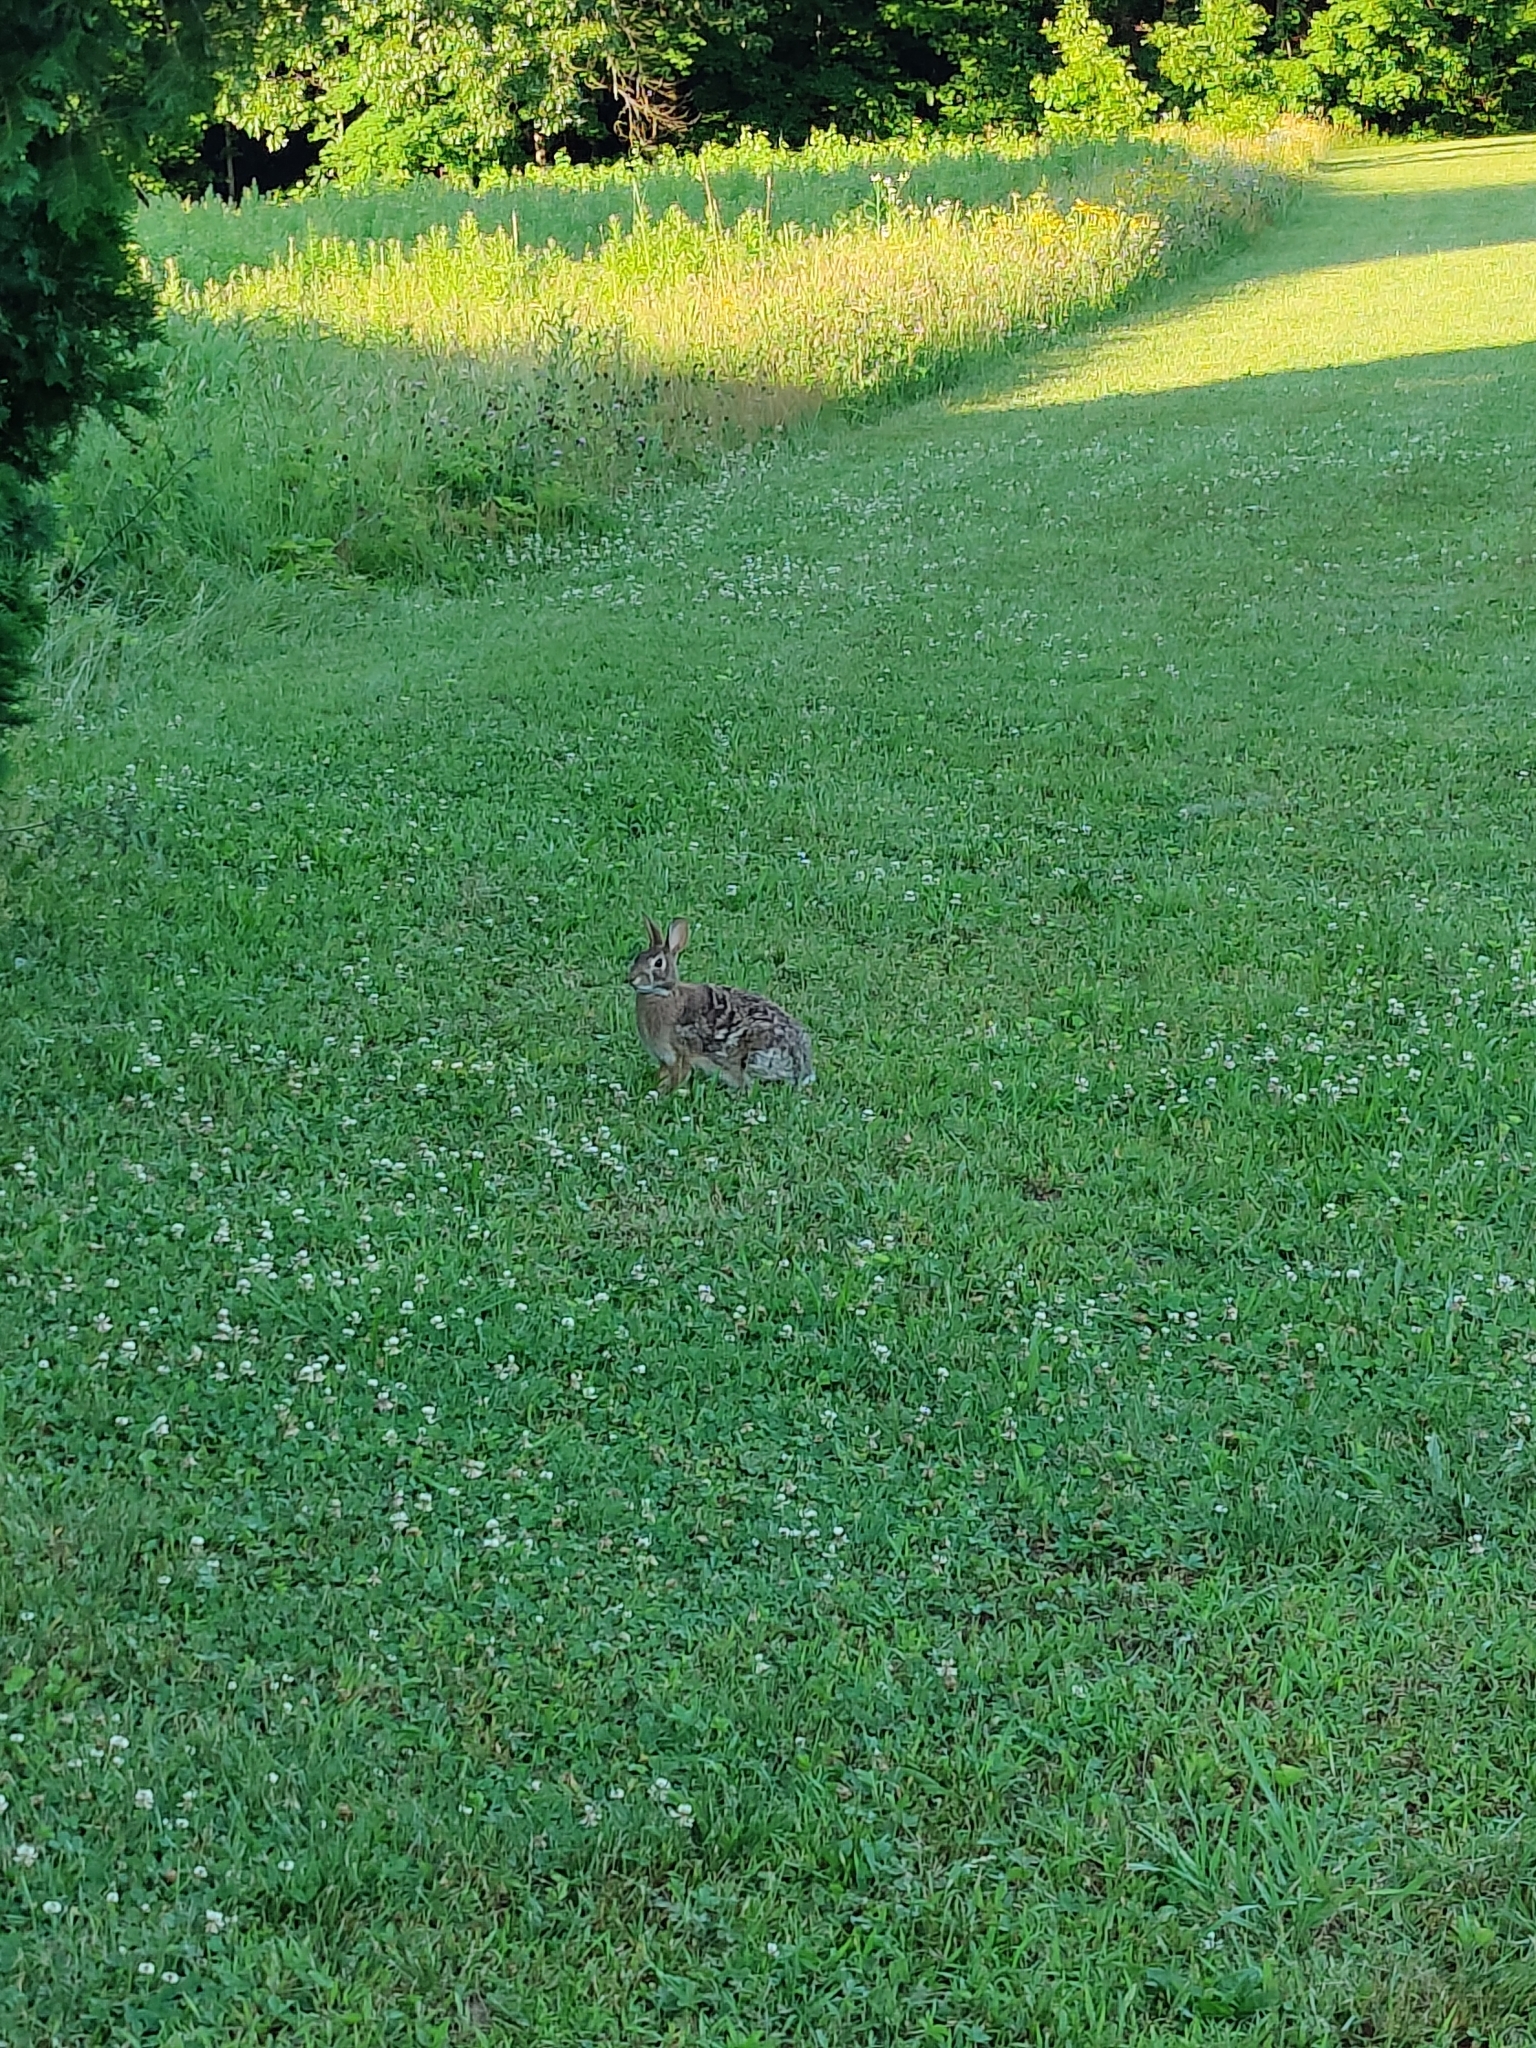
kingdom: Animalia
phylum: Chordata
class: Mammalia
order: Lagomorpha
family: Leporidae
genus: Sylvilagus
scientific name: Sylvilagus floridanus
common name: Eastern cottontail
